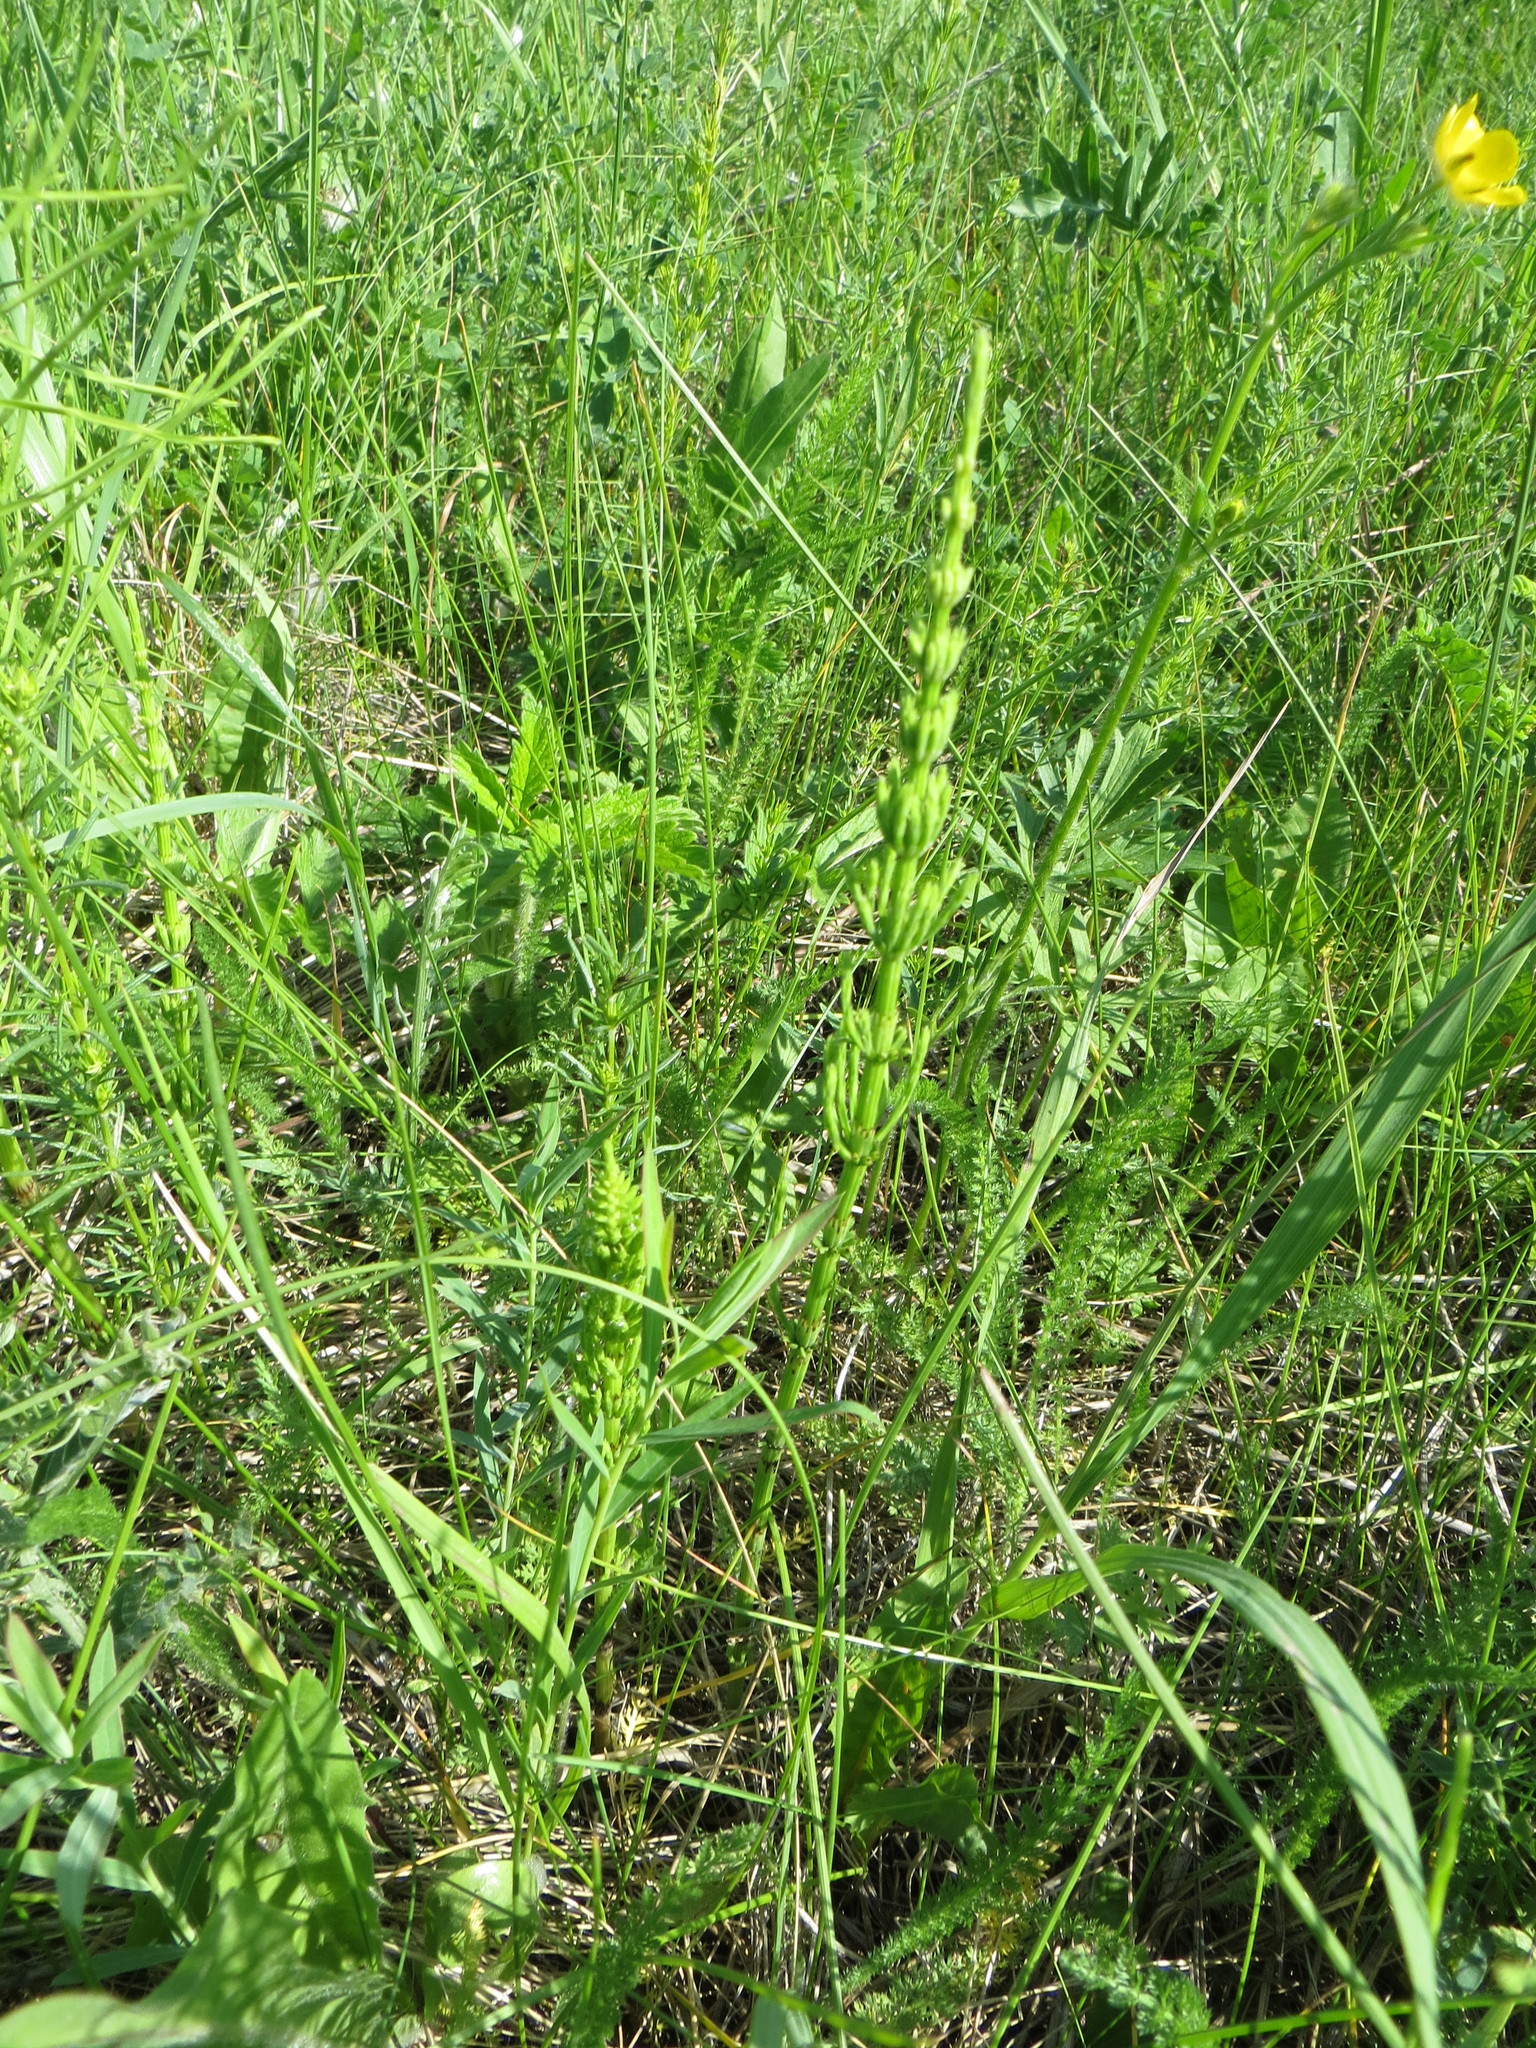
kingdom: Plantae
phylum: Tracheophyta
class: Polypodiopsida
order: Equisetales
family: Equisetaceae
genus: Equisetum
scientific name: Equisetum arvense
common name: Field horsetail
